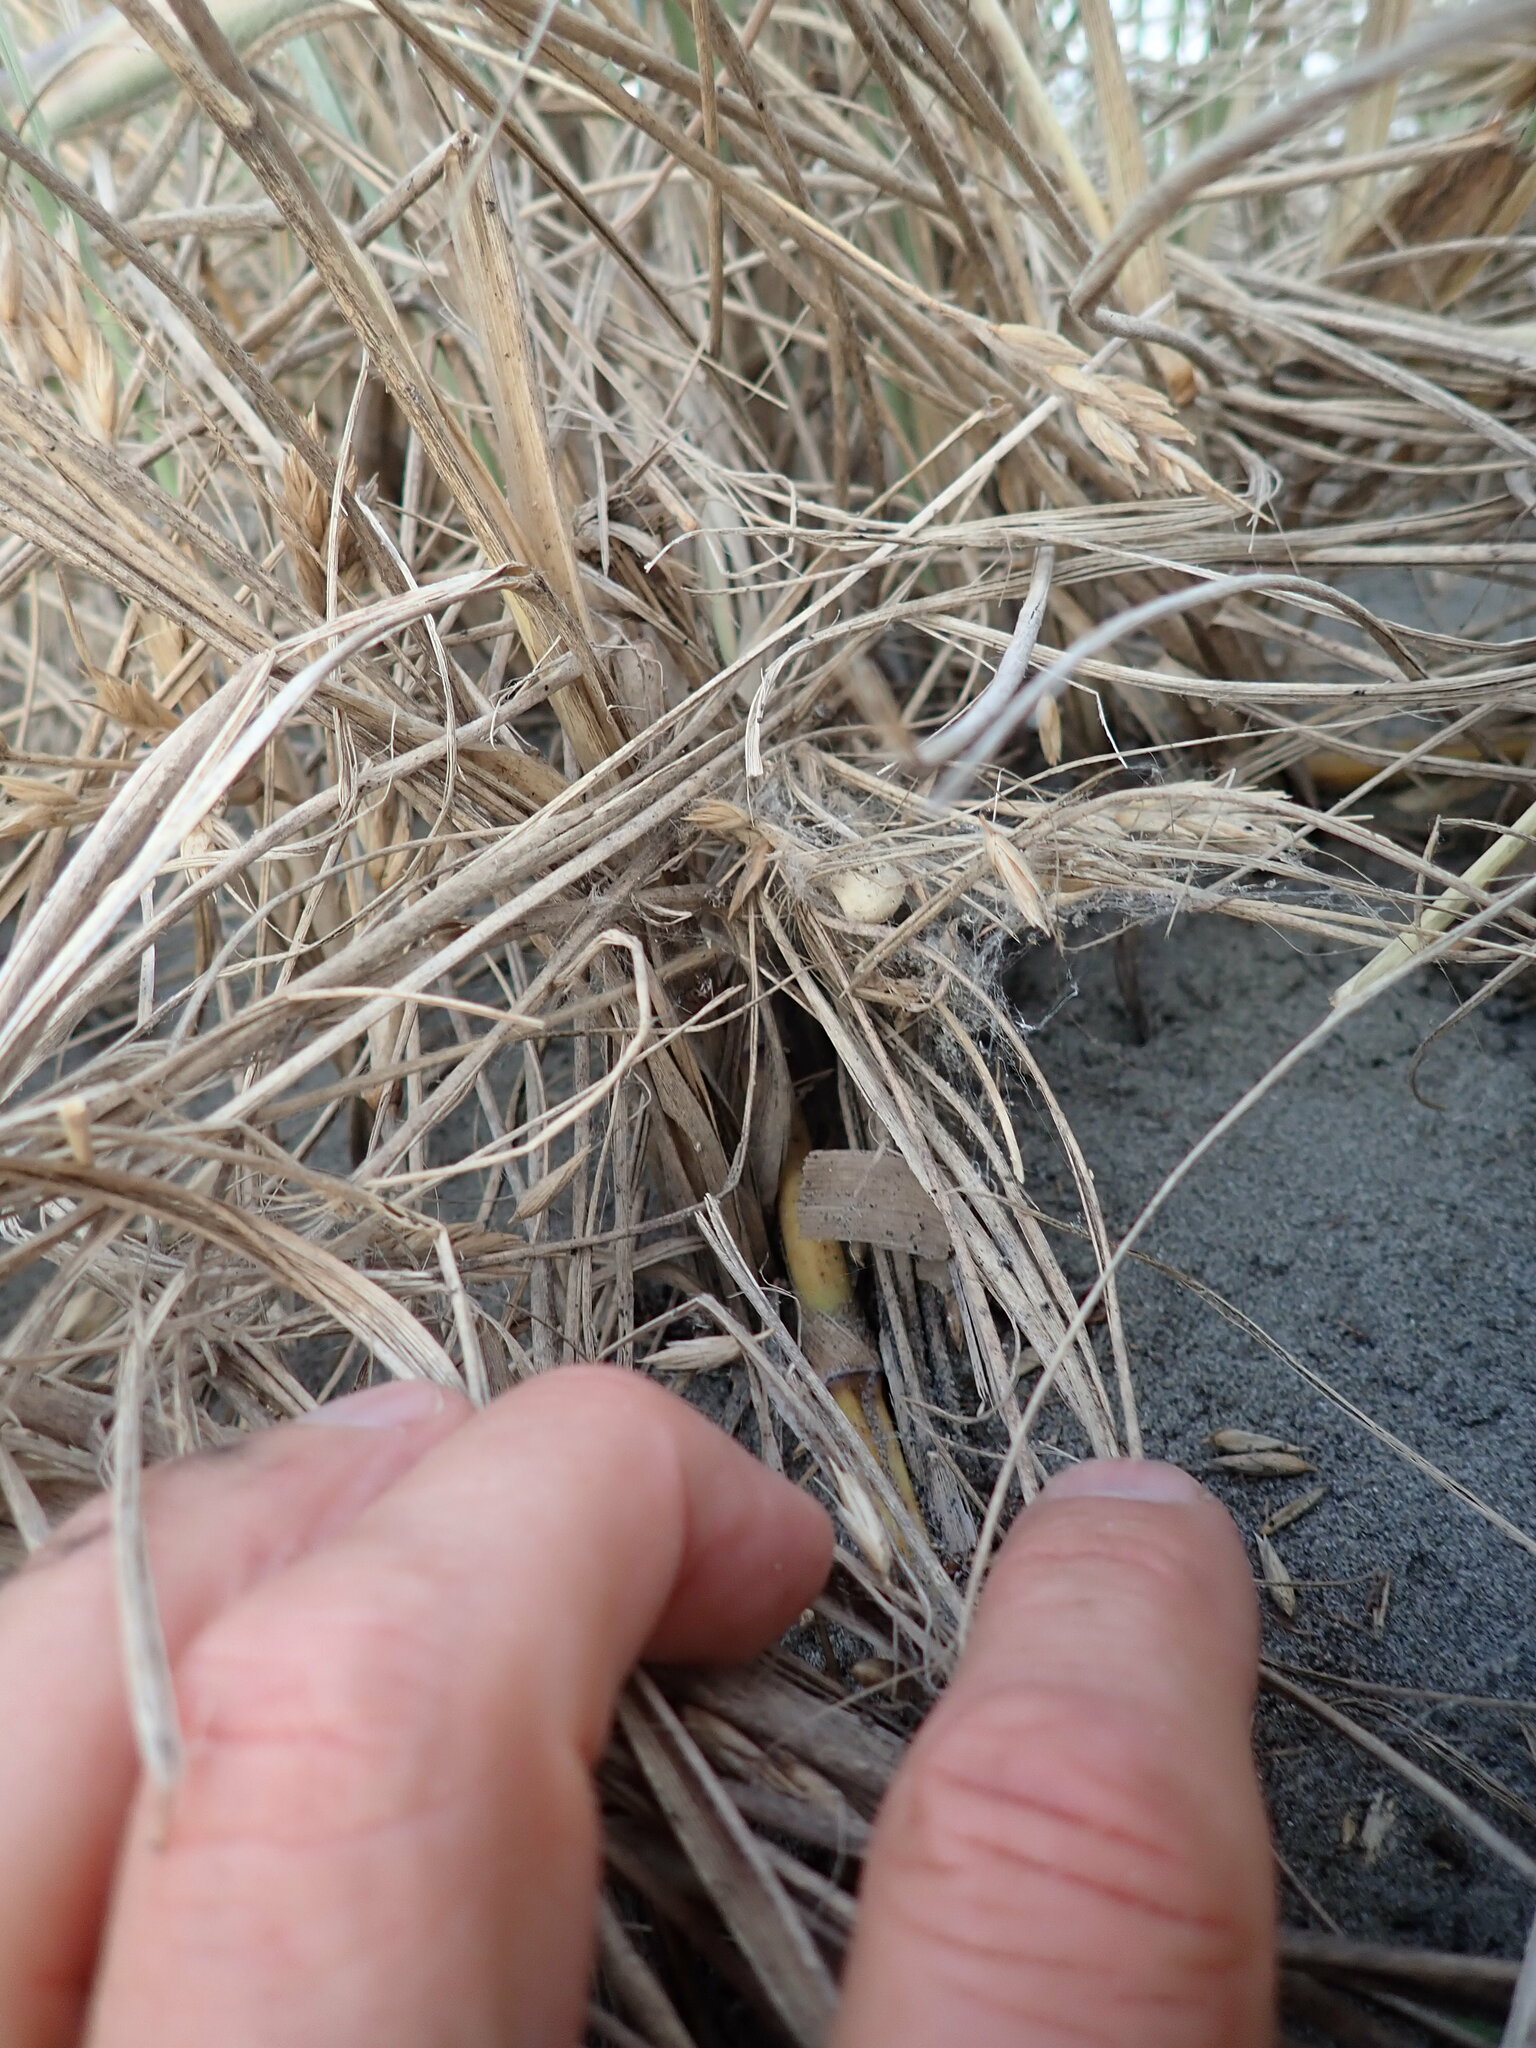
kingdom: Animalia
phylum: Arthropoda
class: Arachnida
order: Araneae
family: Theridiidae
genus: Latrodectus
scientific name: Latrodectus katipo
